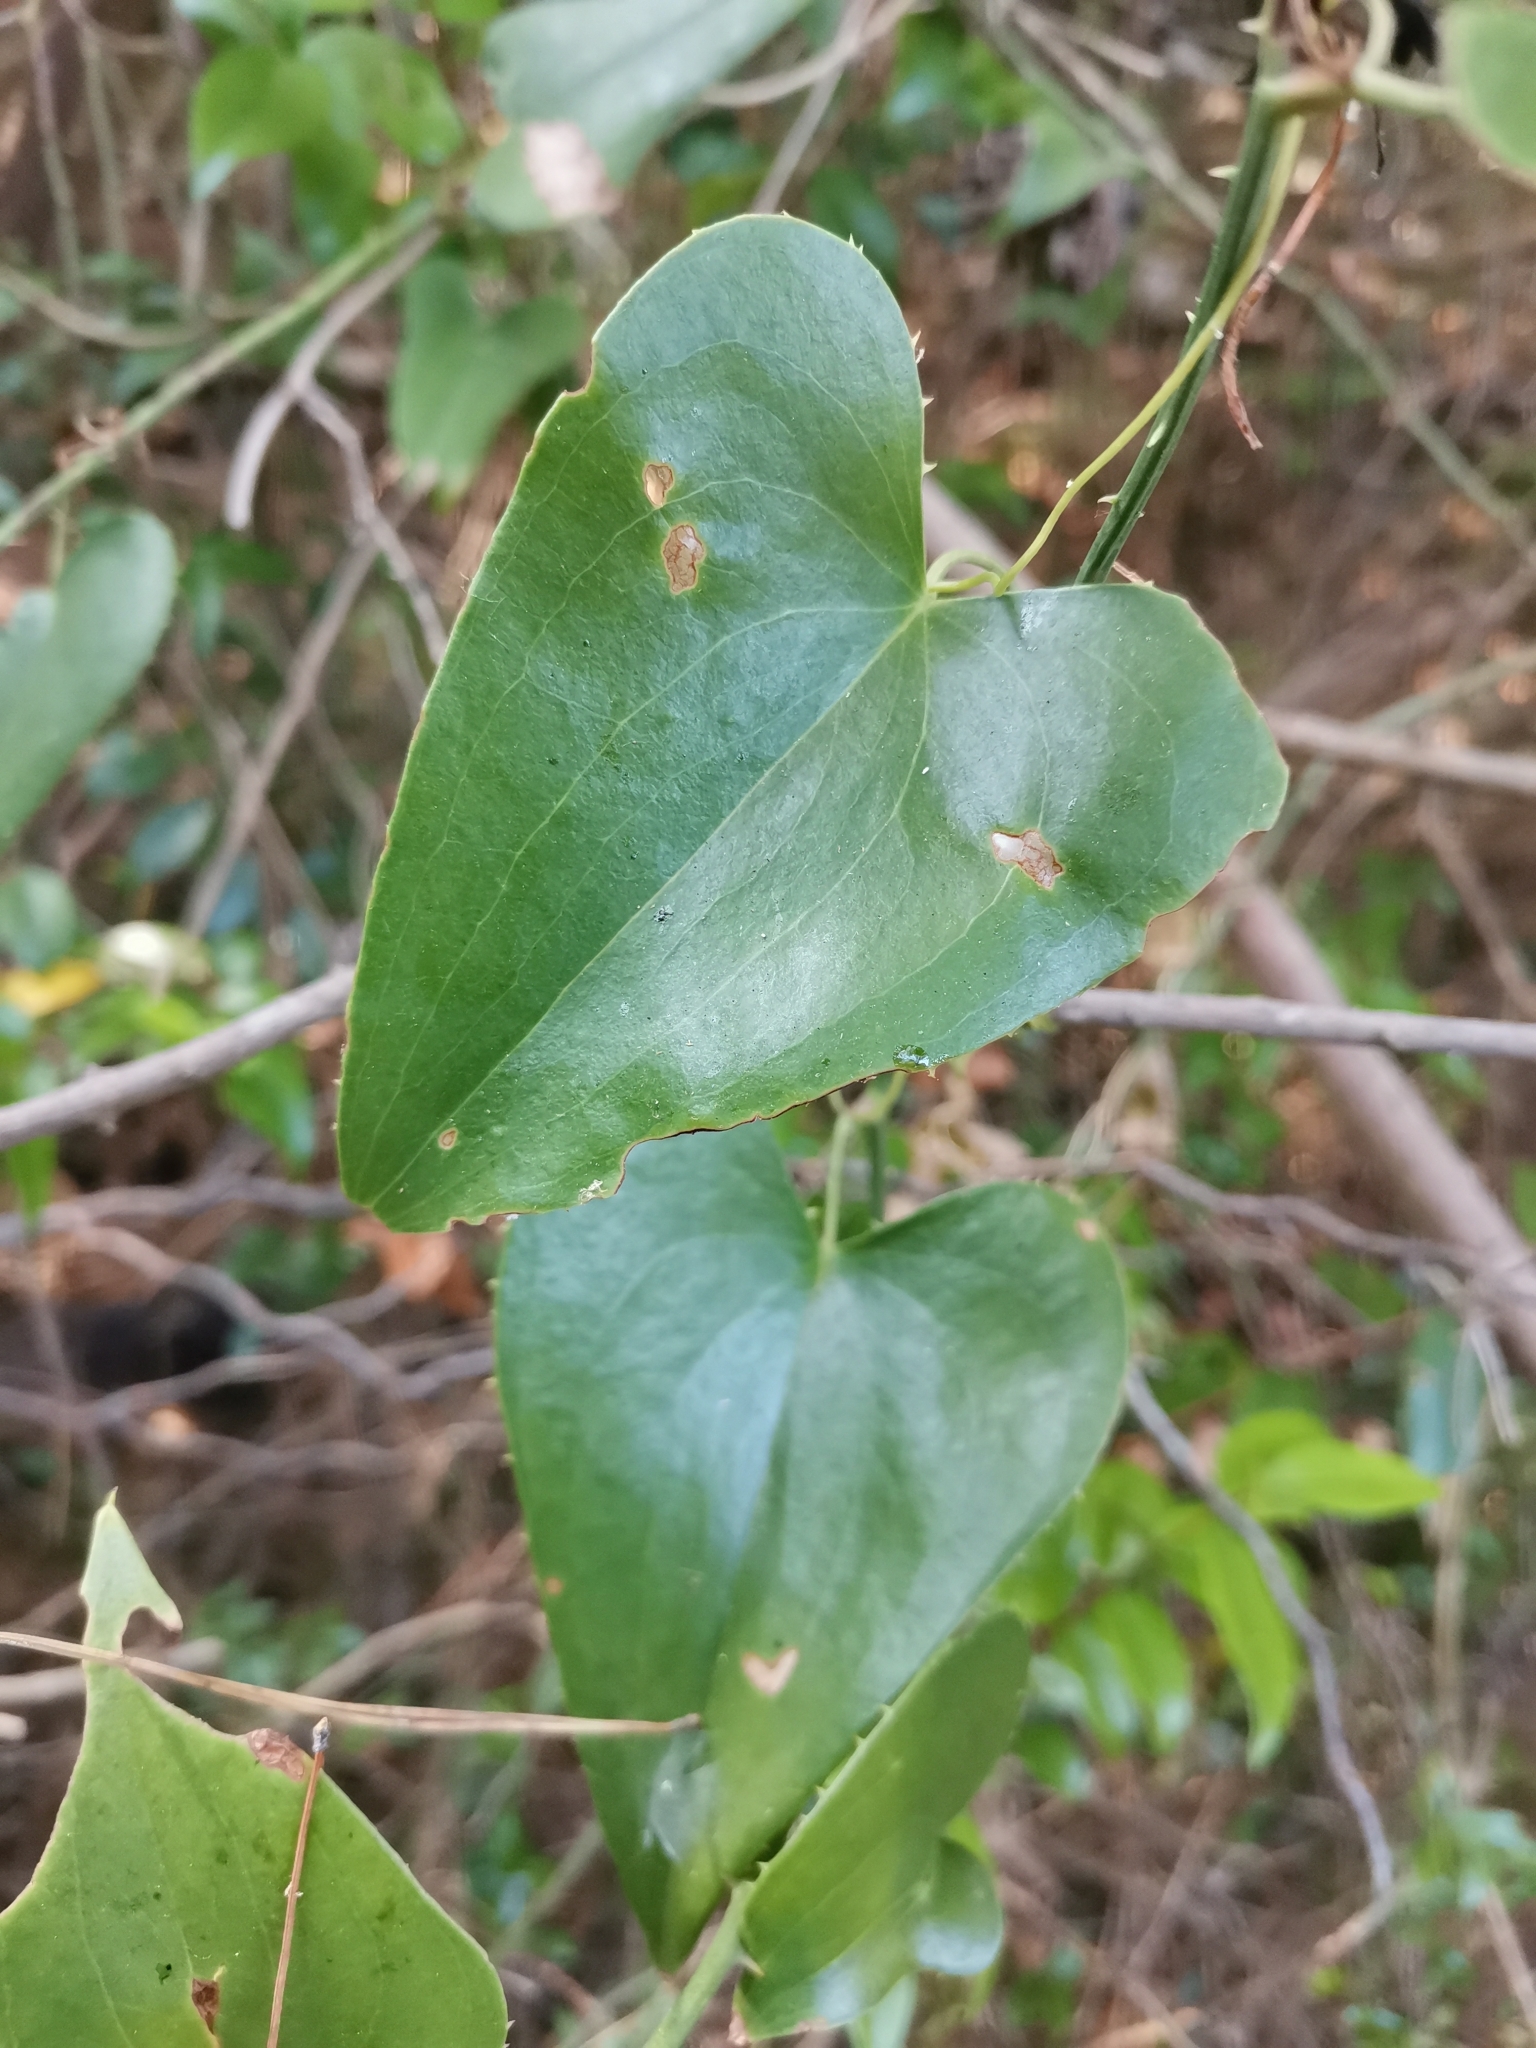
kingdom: Plantae
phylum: Tracheophyta
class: Liliopsida
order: Liliales
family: Smilacaceae
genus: Smilax
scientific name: Smilax aspera
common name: Common smilax
